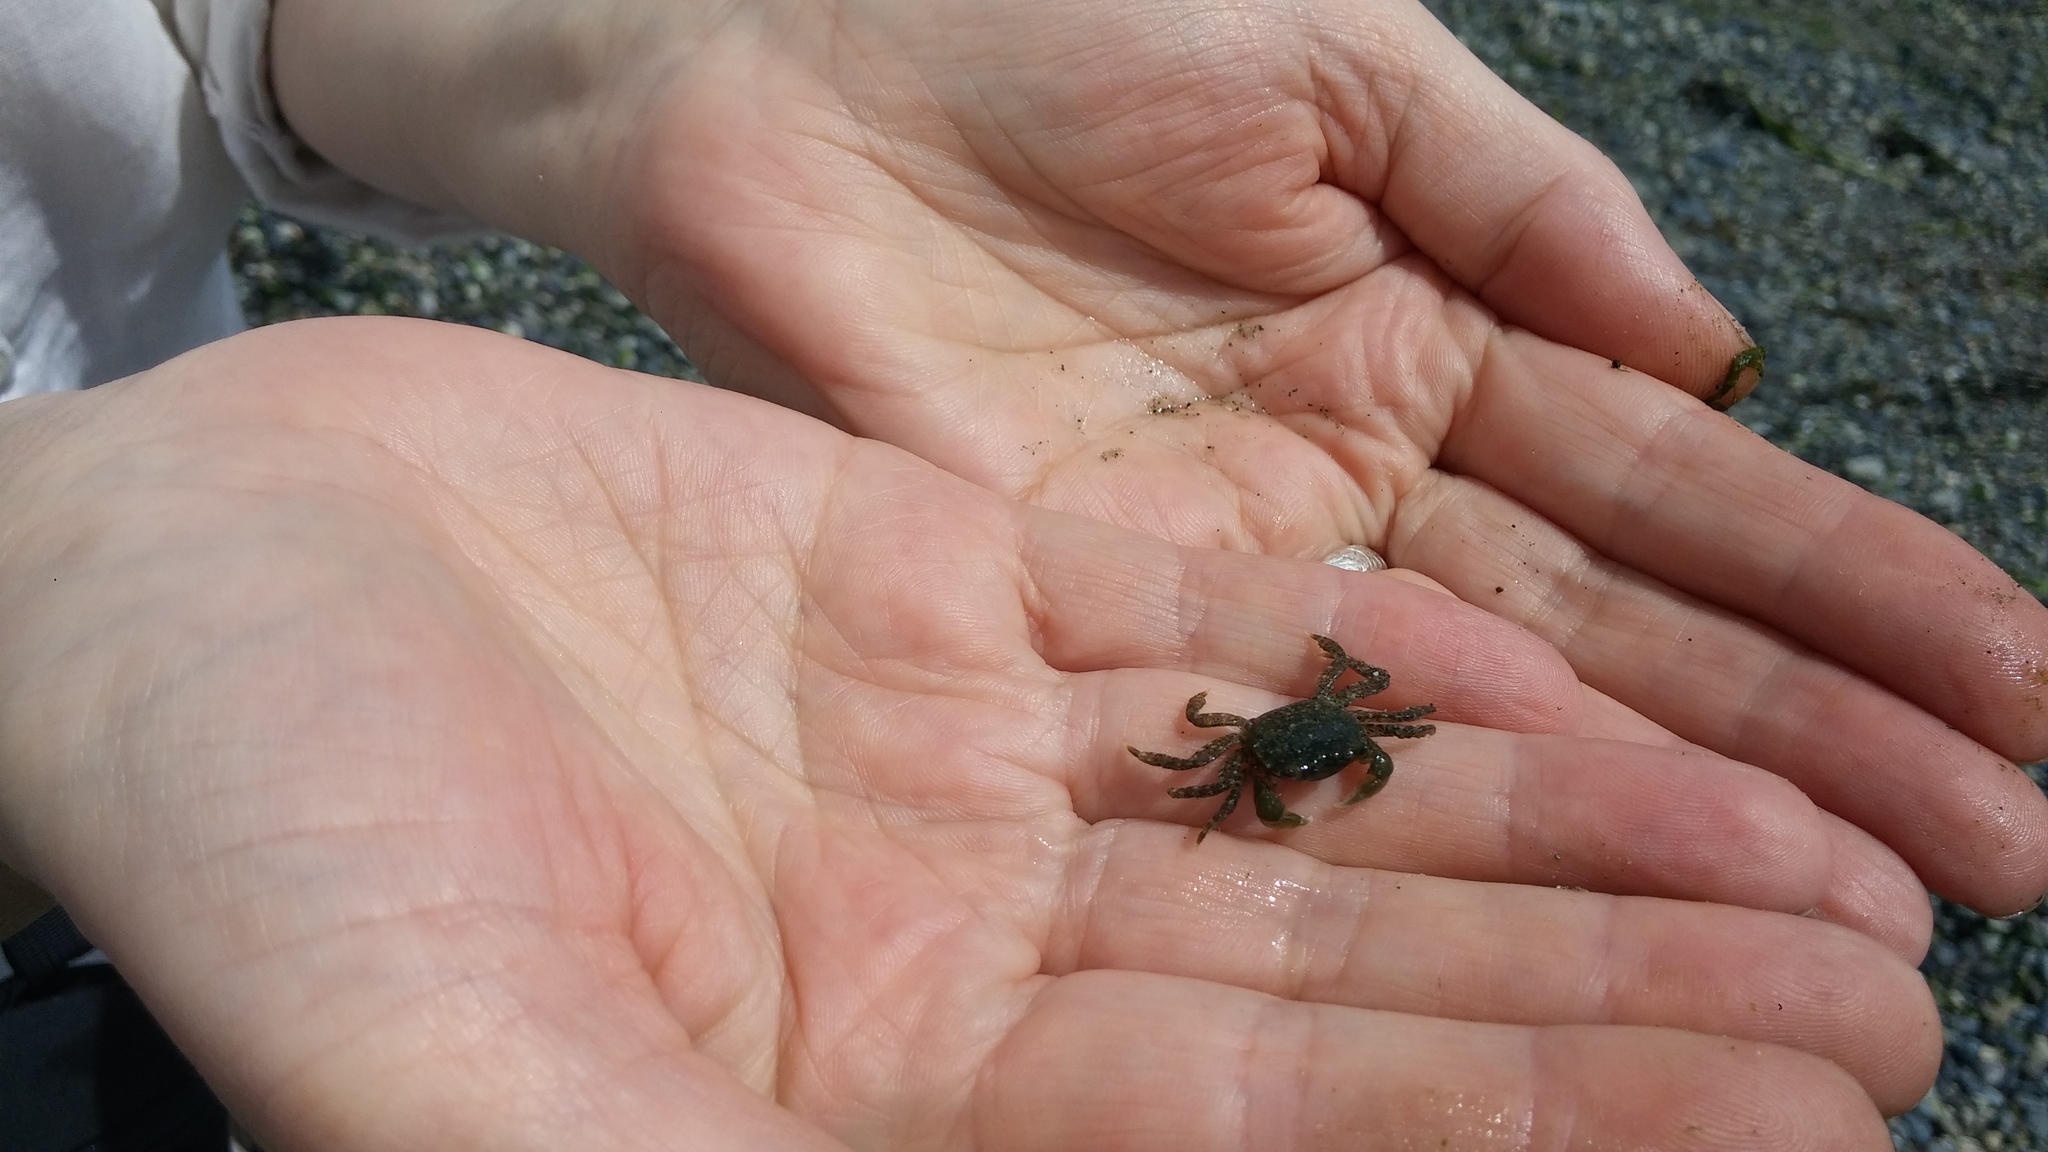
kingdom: Animalia
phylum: Arthropoda
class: Malacostraca
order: Decapoda
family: Varunidae
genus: Hemigrapsus
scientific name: Hemigrapsus oregonensis
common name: Yellow shore crab
